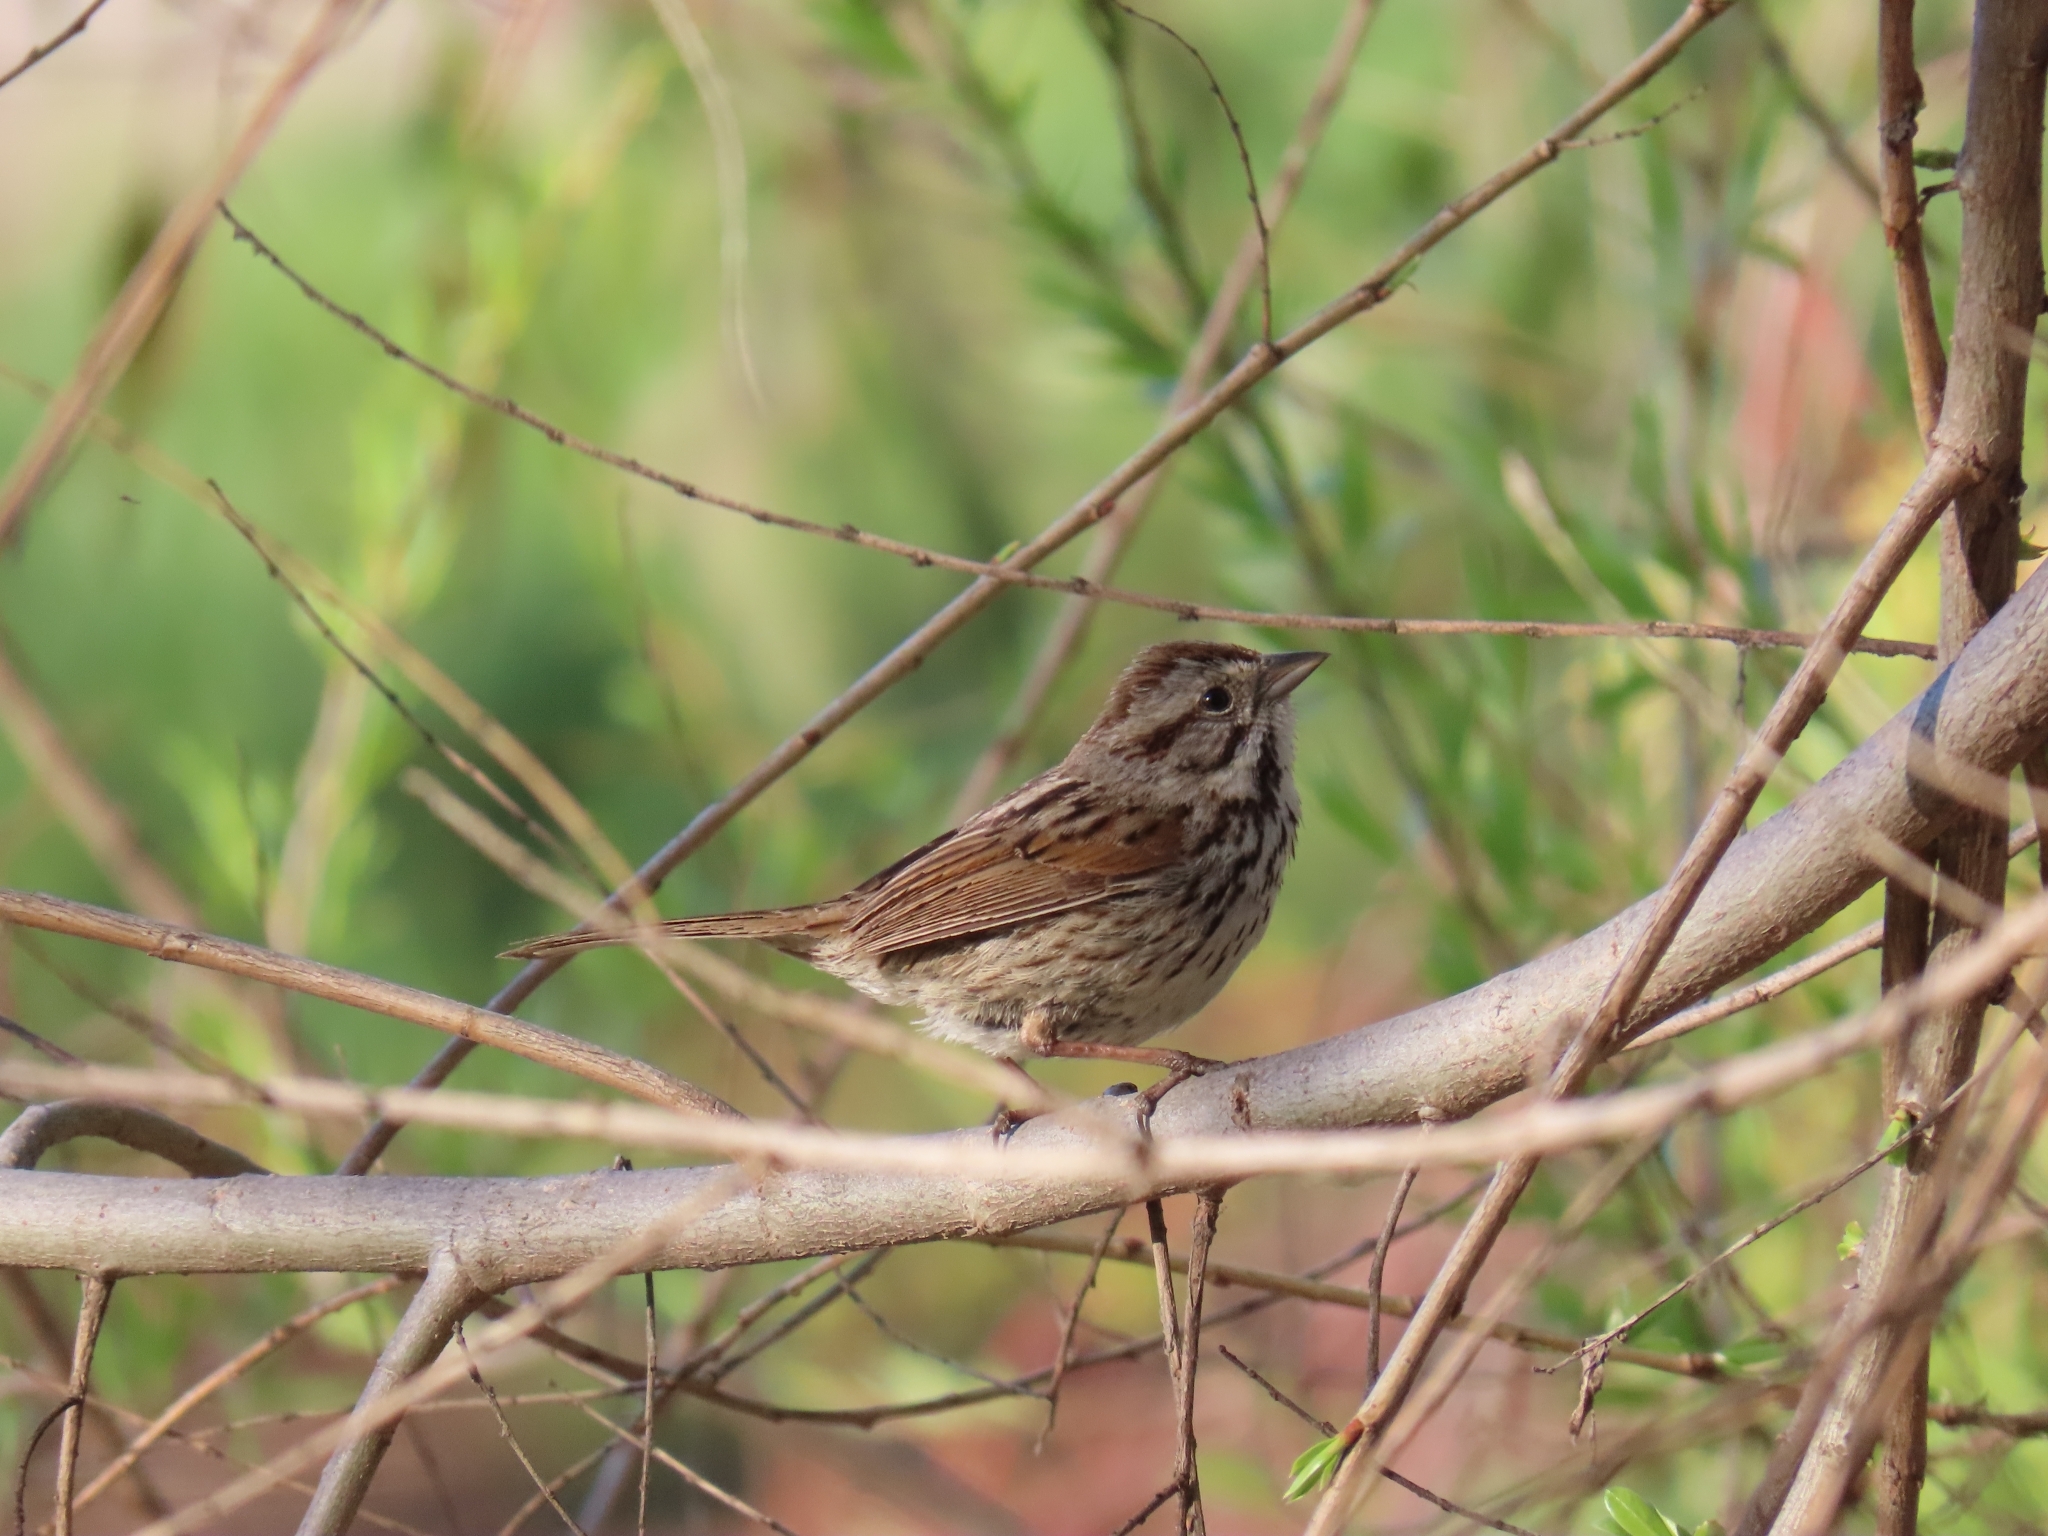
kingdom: Animalia
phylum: Chordata
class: Aves
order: Passeriformes
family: Passerellidae
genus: Melospiza
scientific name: Melospiza melodia
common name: Song sparrow
